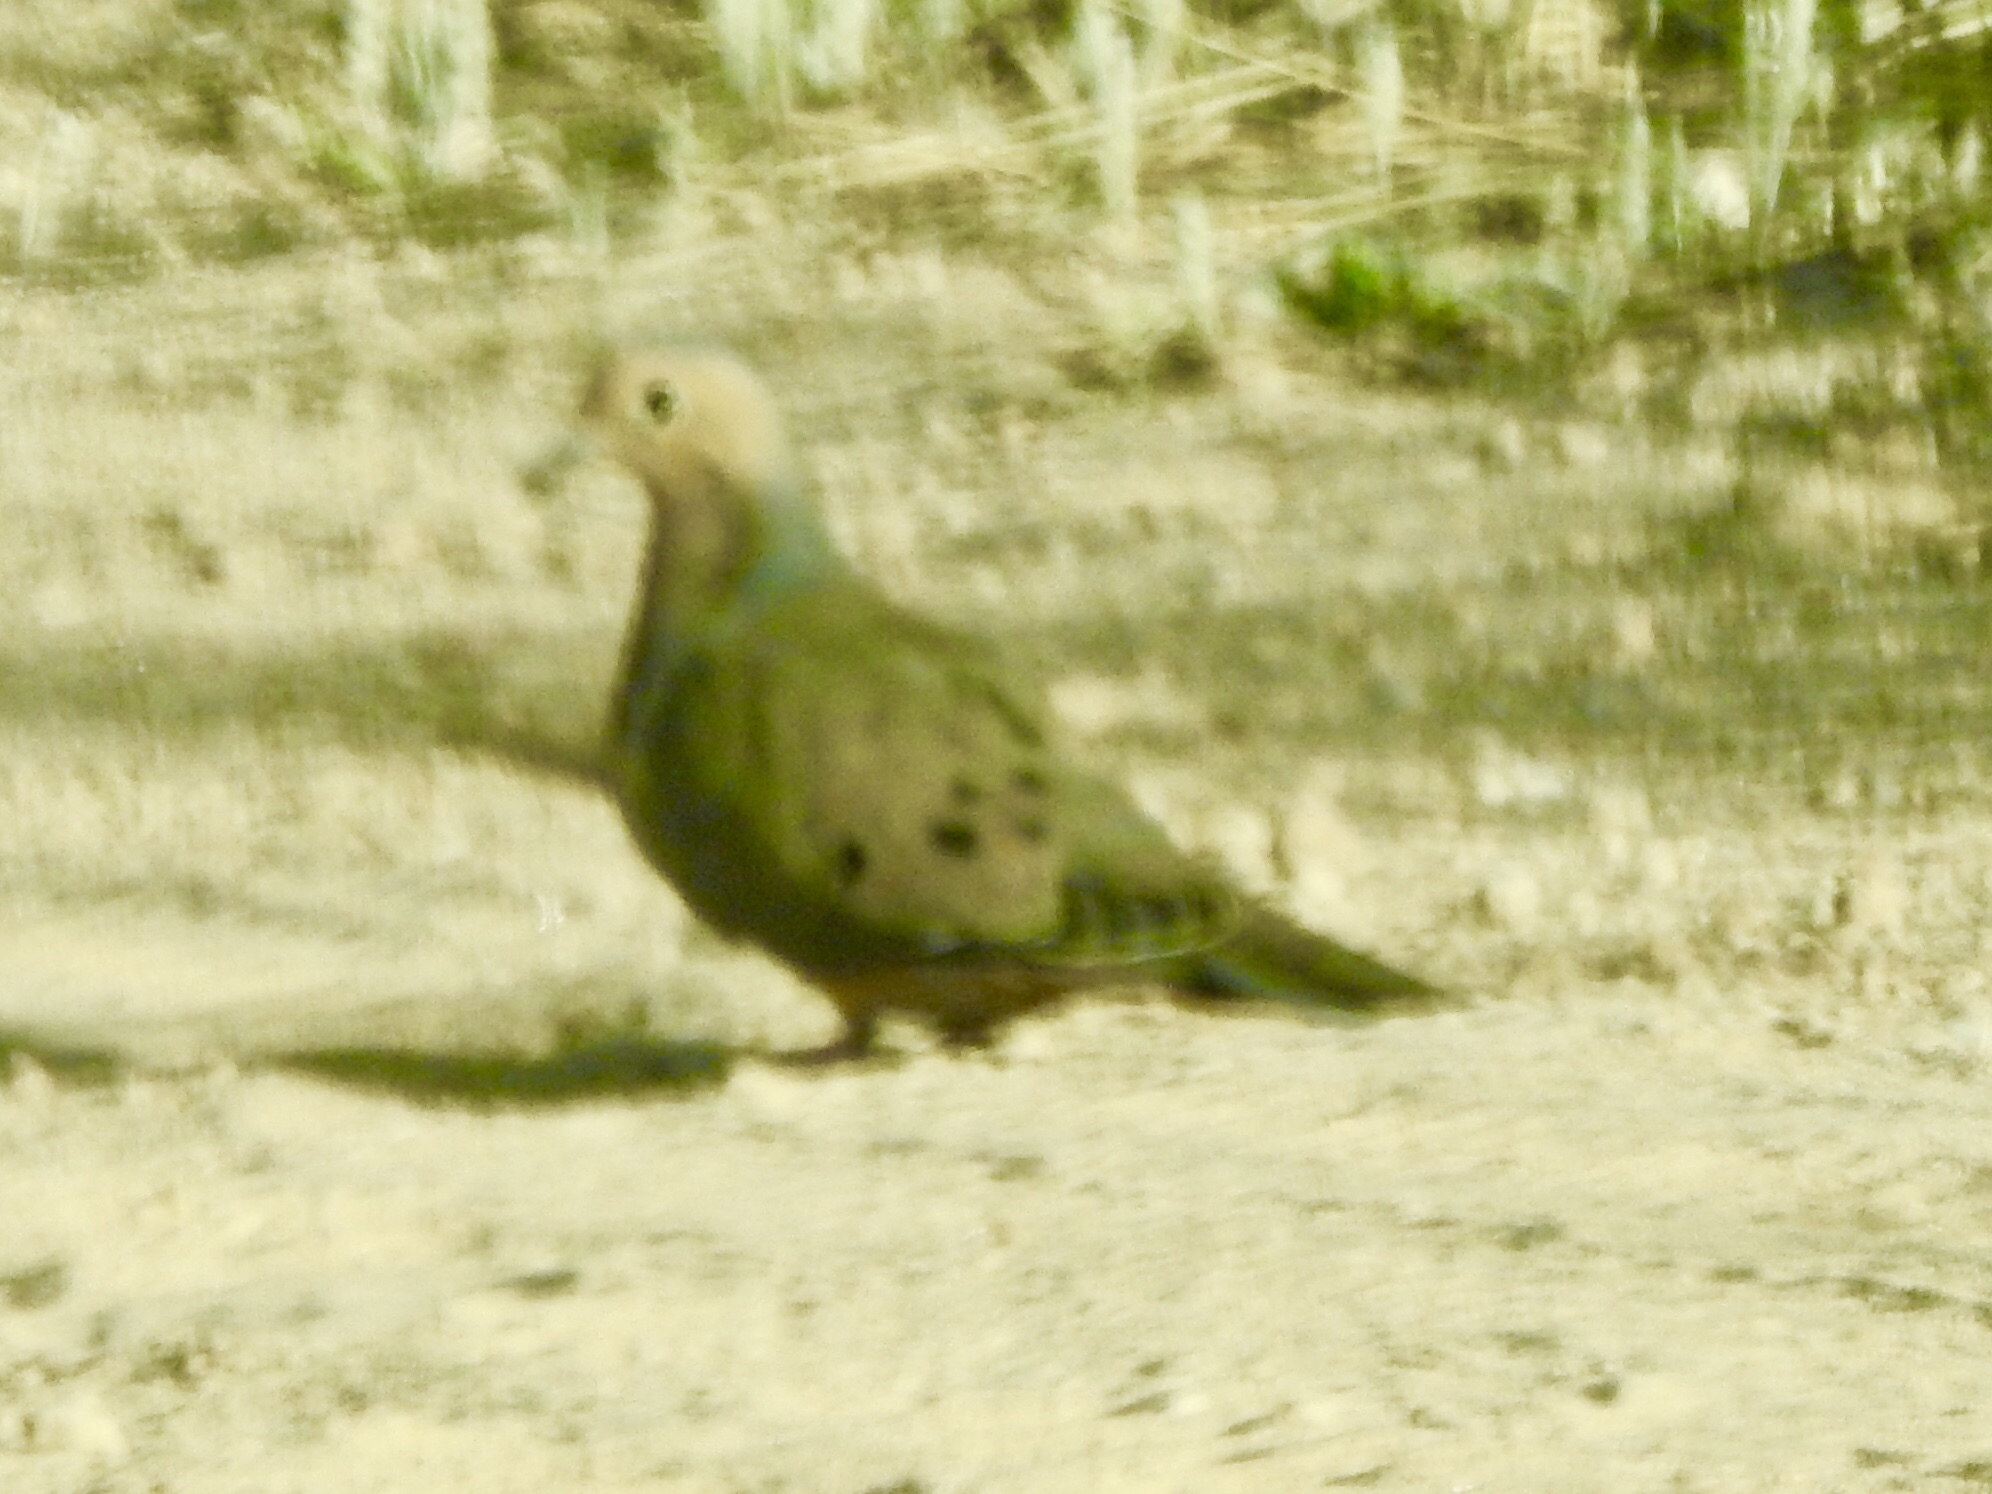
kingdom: Animalia
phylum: Chordata
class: Aves
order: Columbiformes
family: Columbidae
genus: Zenaida
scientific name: Zenaida macroura
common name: Mourning dove
